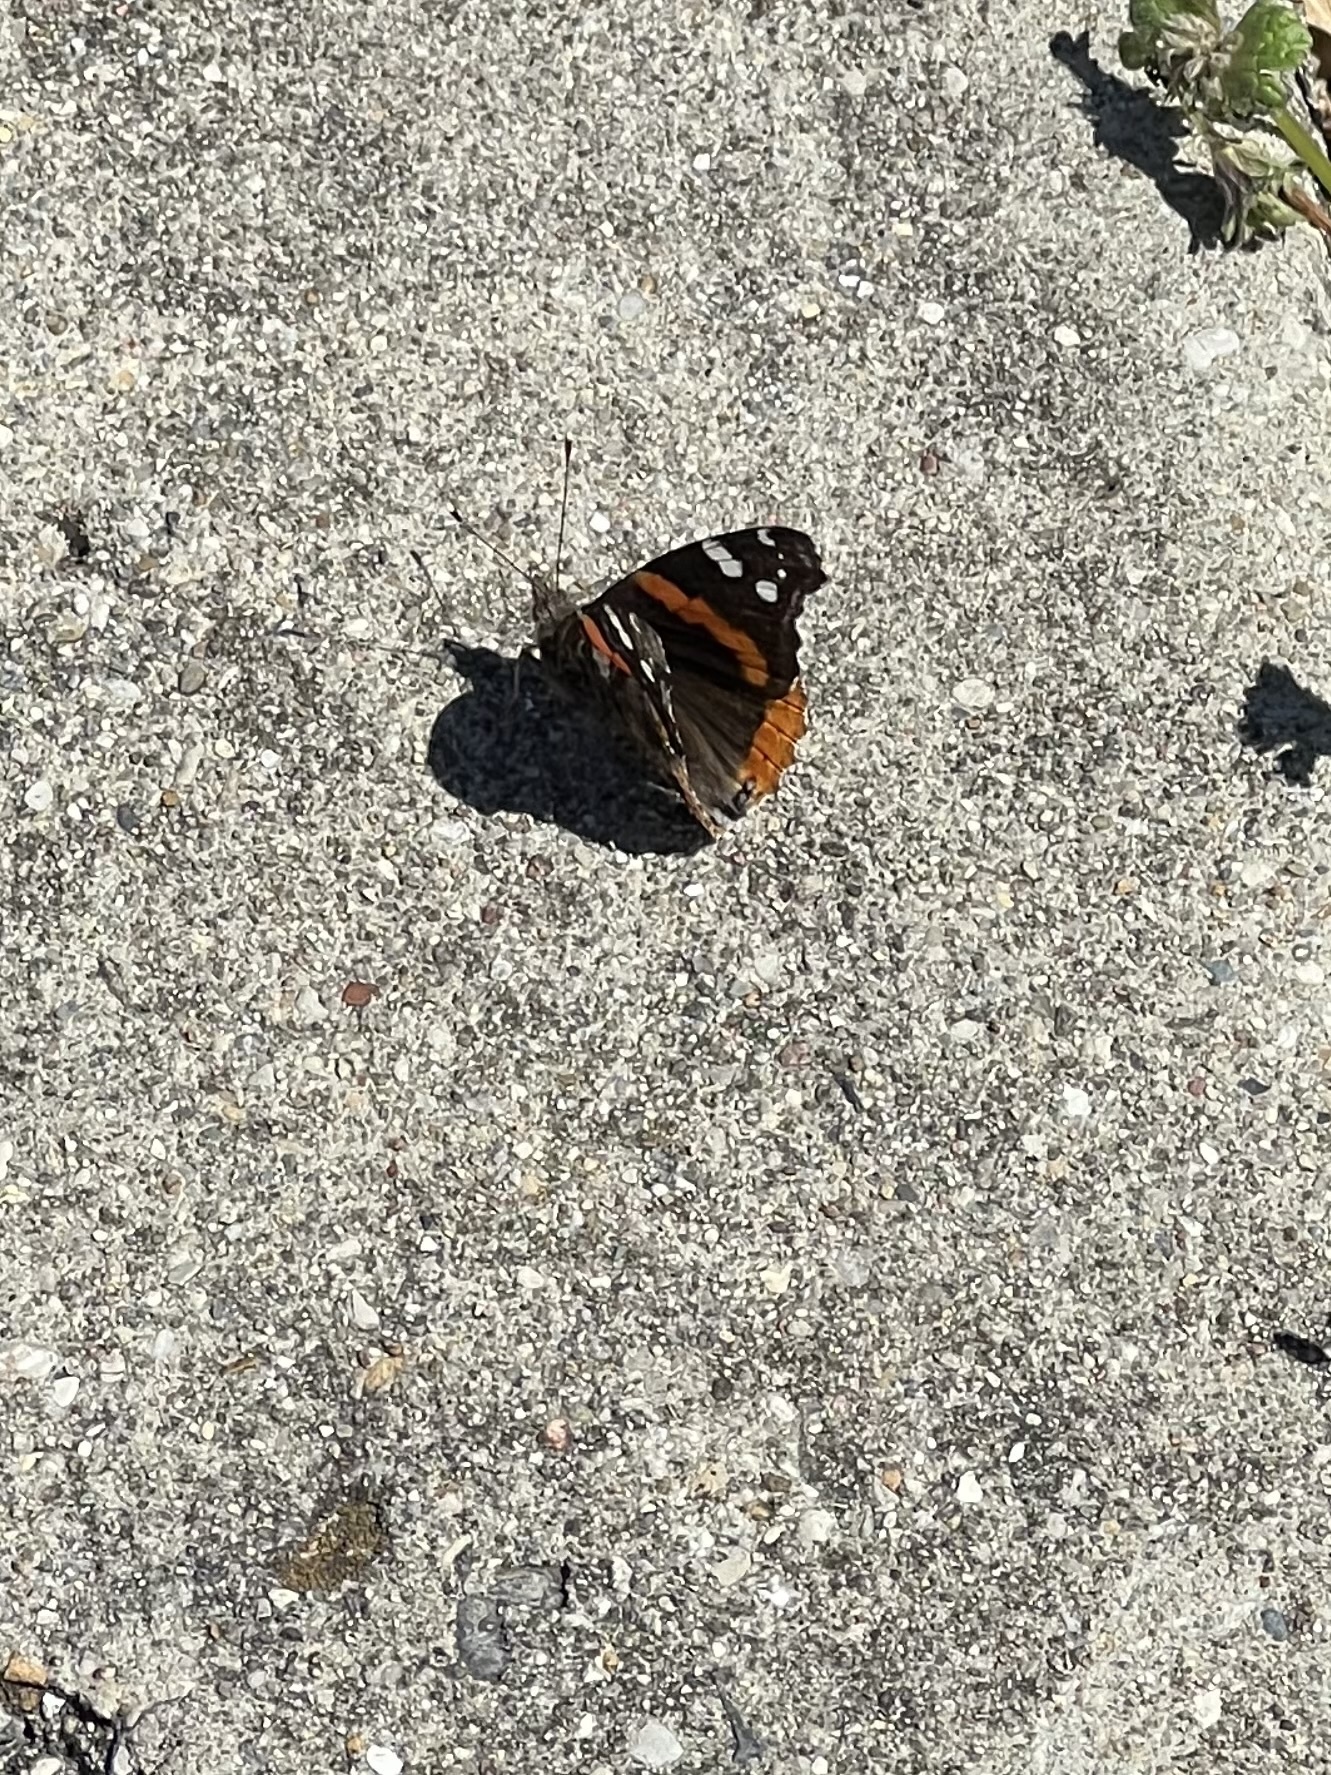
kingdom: Animalia
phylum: Arthropoda
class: Insecta
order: Lepidoptera
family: Nymphalidae
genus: Vanessa
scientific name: Vanessa atalanta
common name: Red admiral
